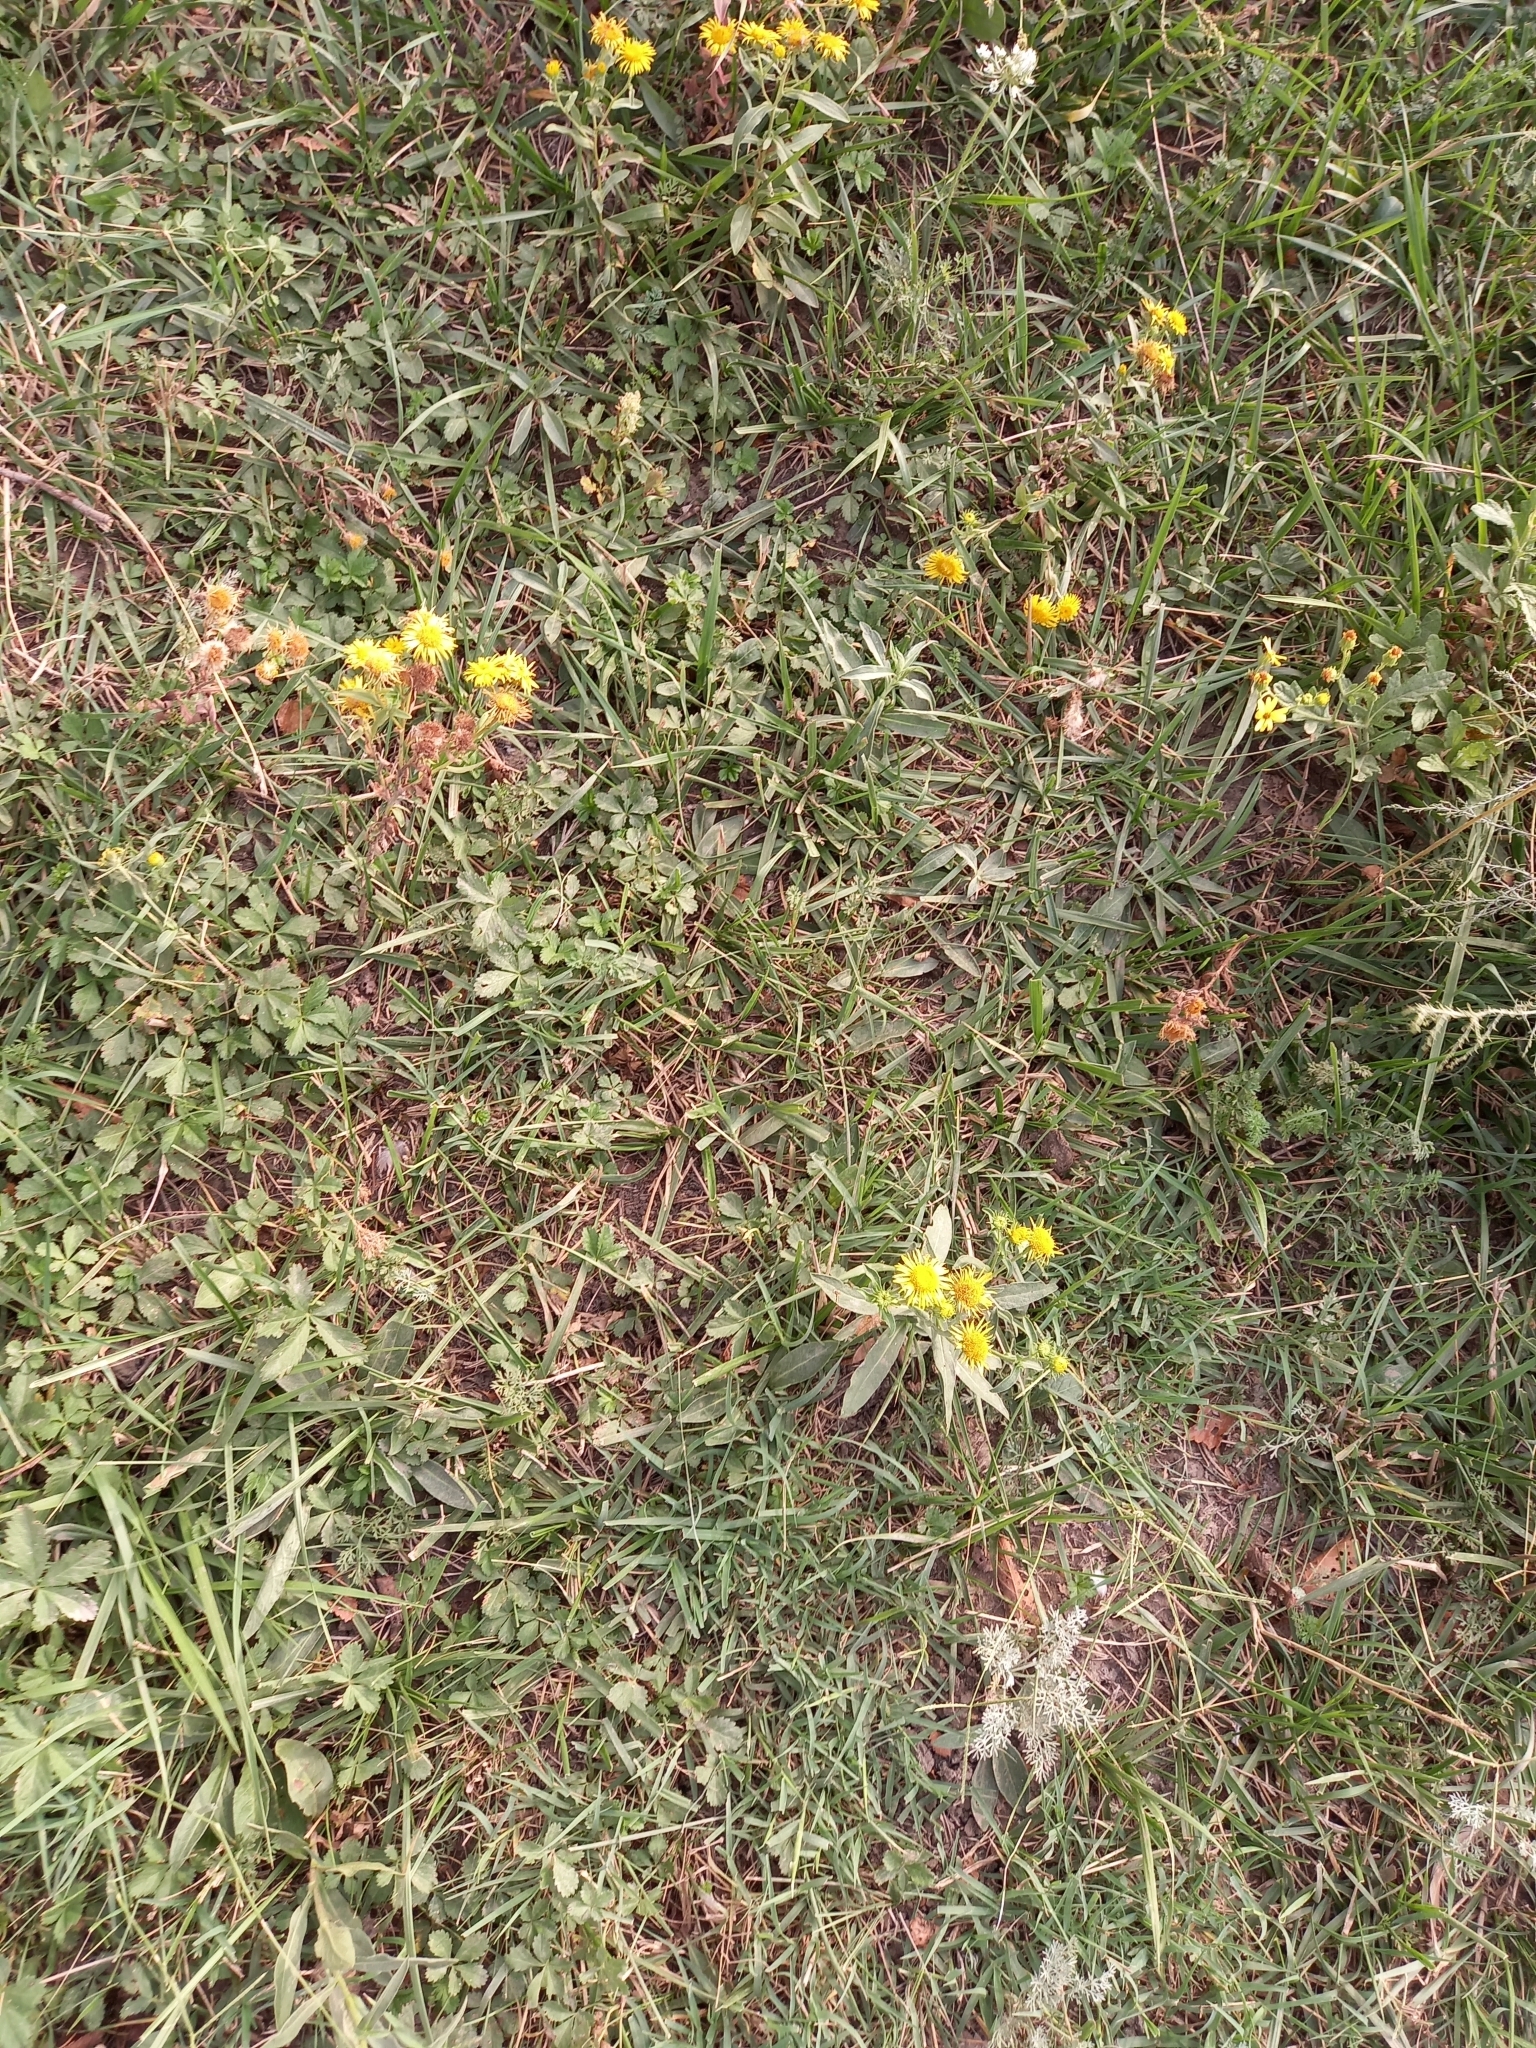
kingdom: Plantae
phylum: Tracheophyta
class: Magnoliopsida
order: Asterales
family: Asteraceae
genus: Pentanema
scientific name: Pentanema britannicum
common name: British elecampane
